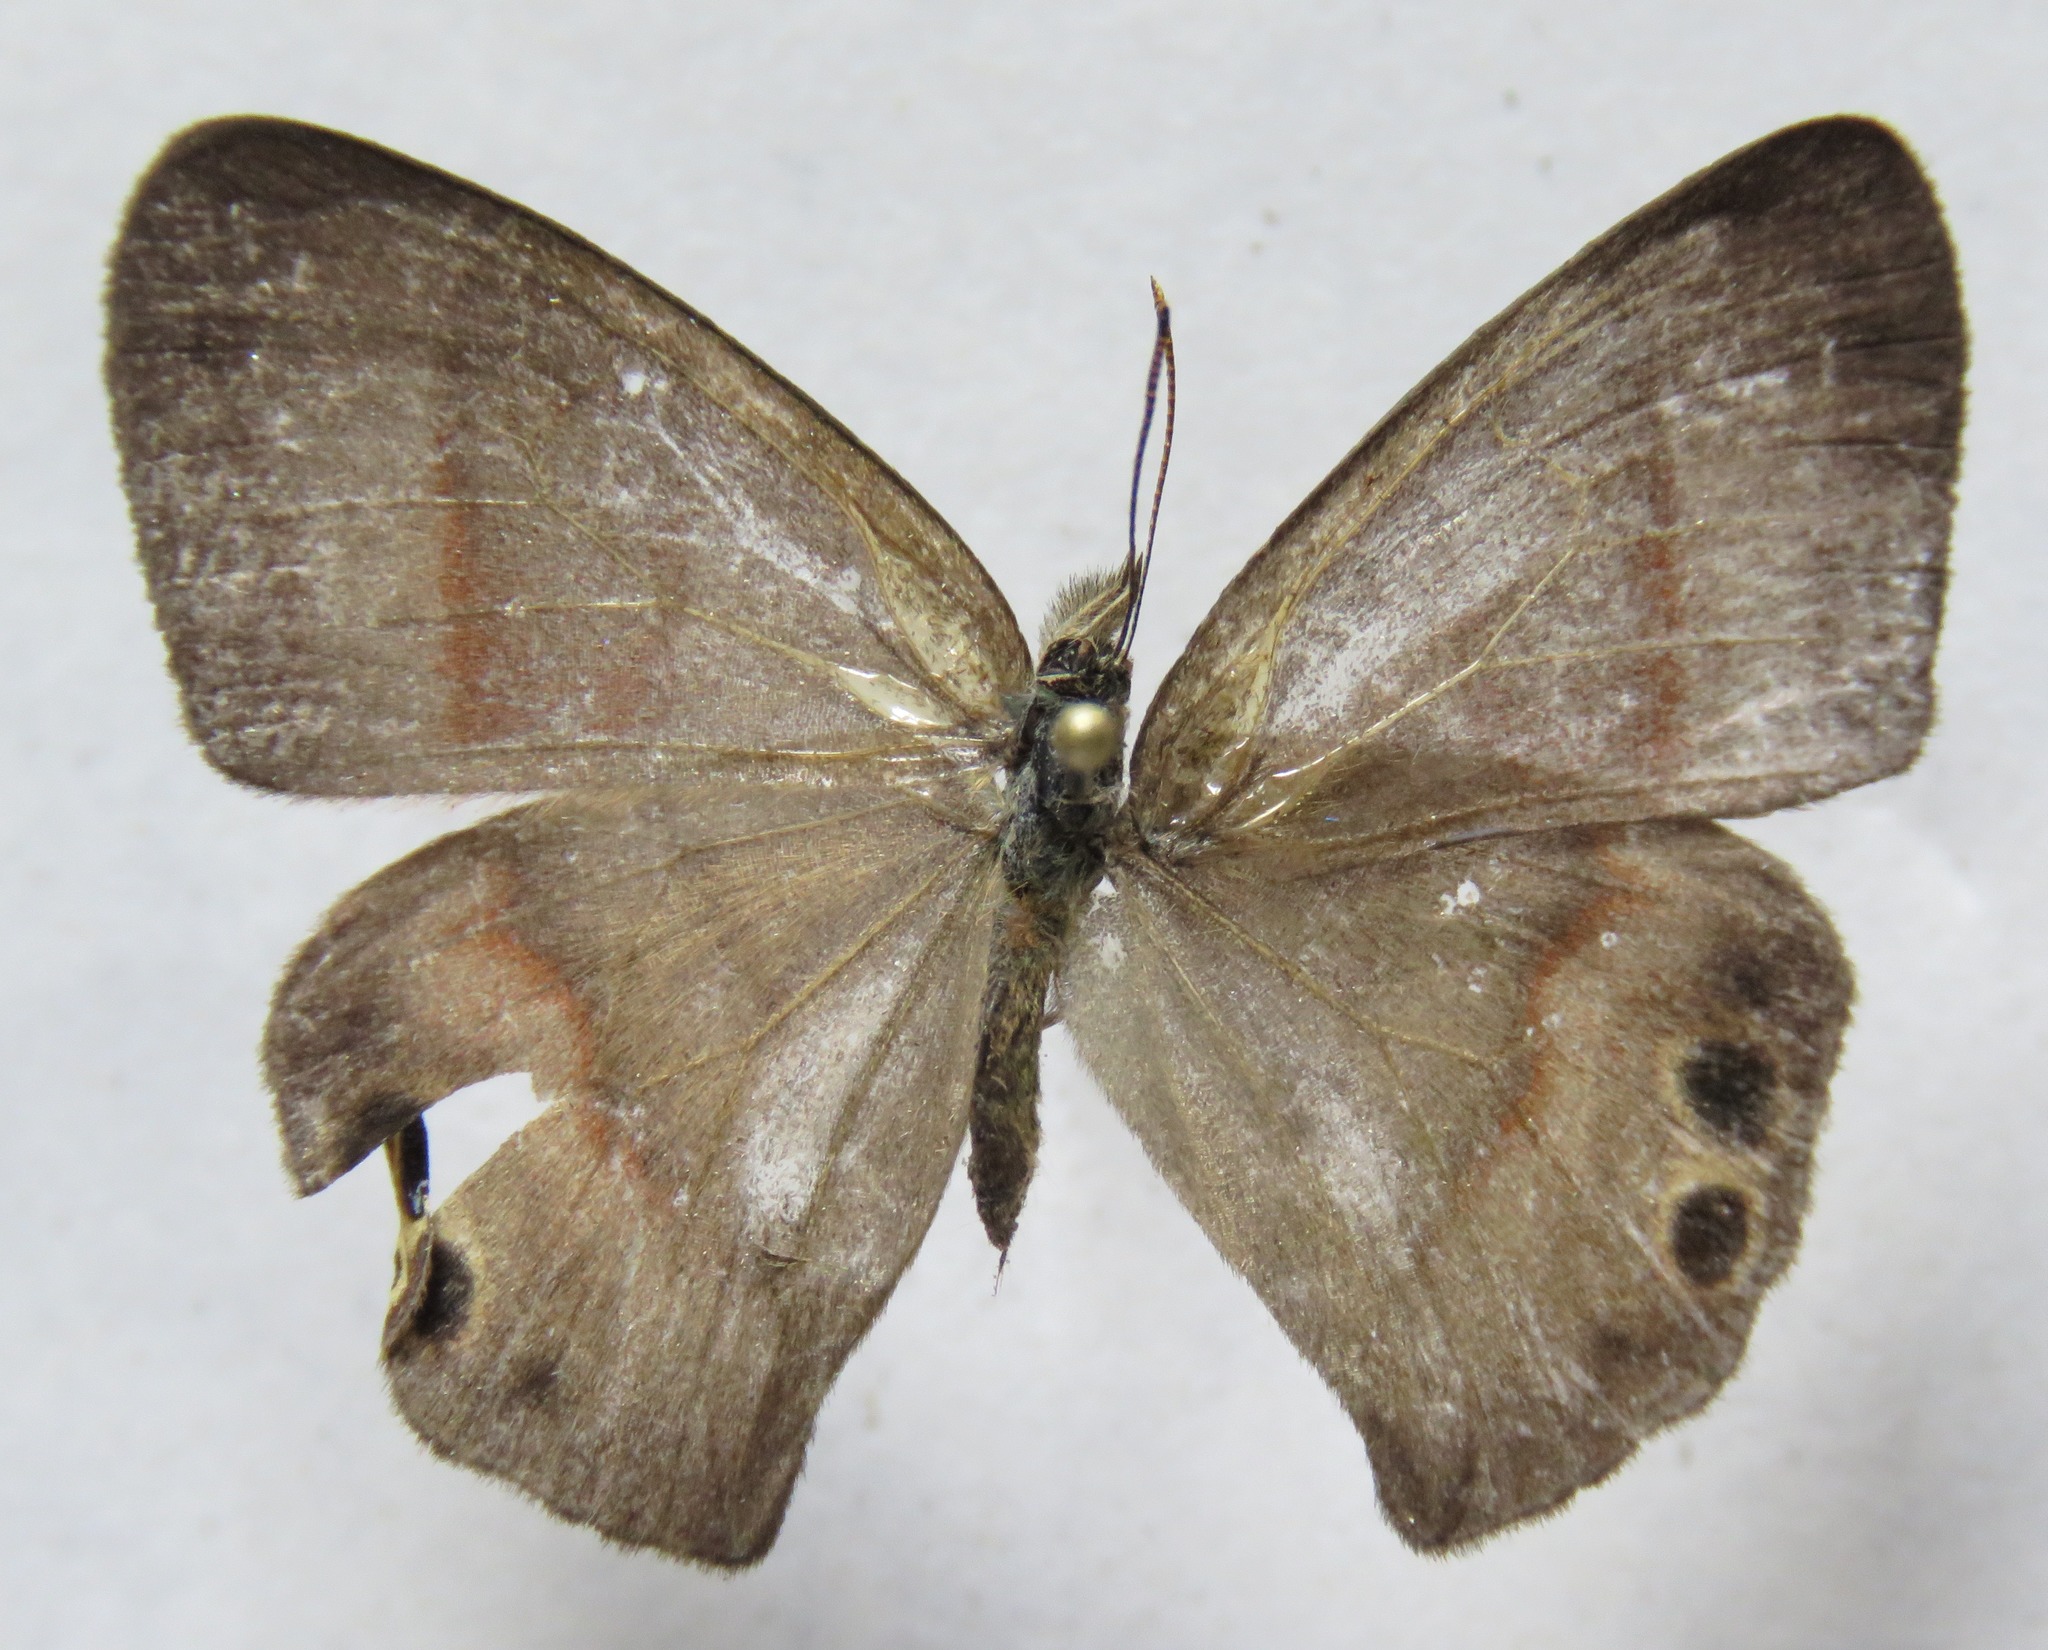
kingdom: Animalia
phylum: Arthropoda
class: Insecta
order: Lepidoptera
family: Nymphalidae
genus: Euptychia
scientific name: Euptychia
